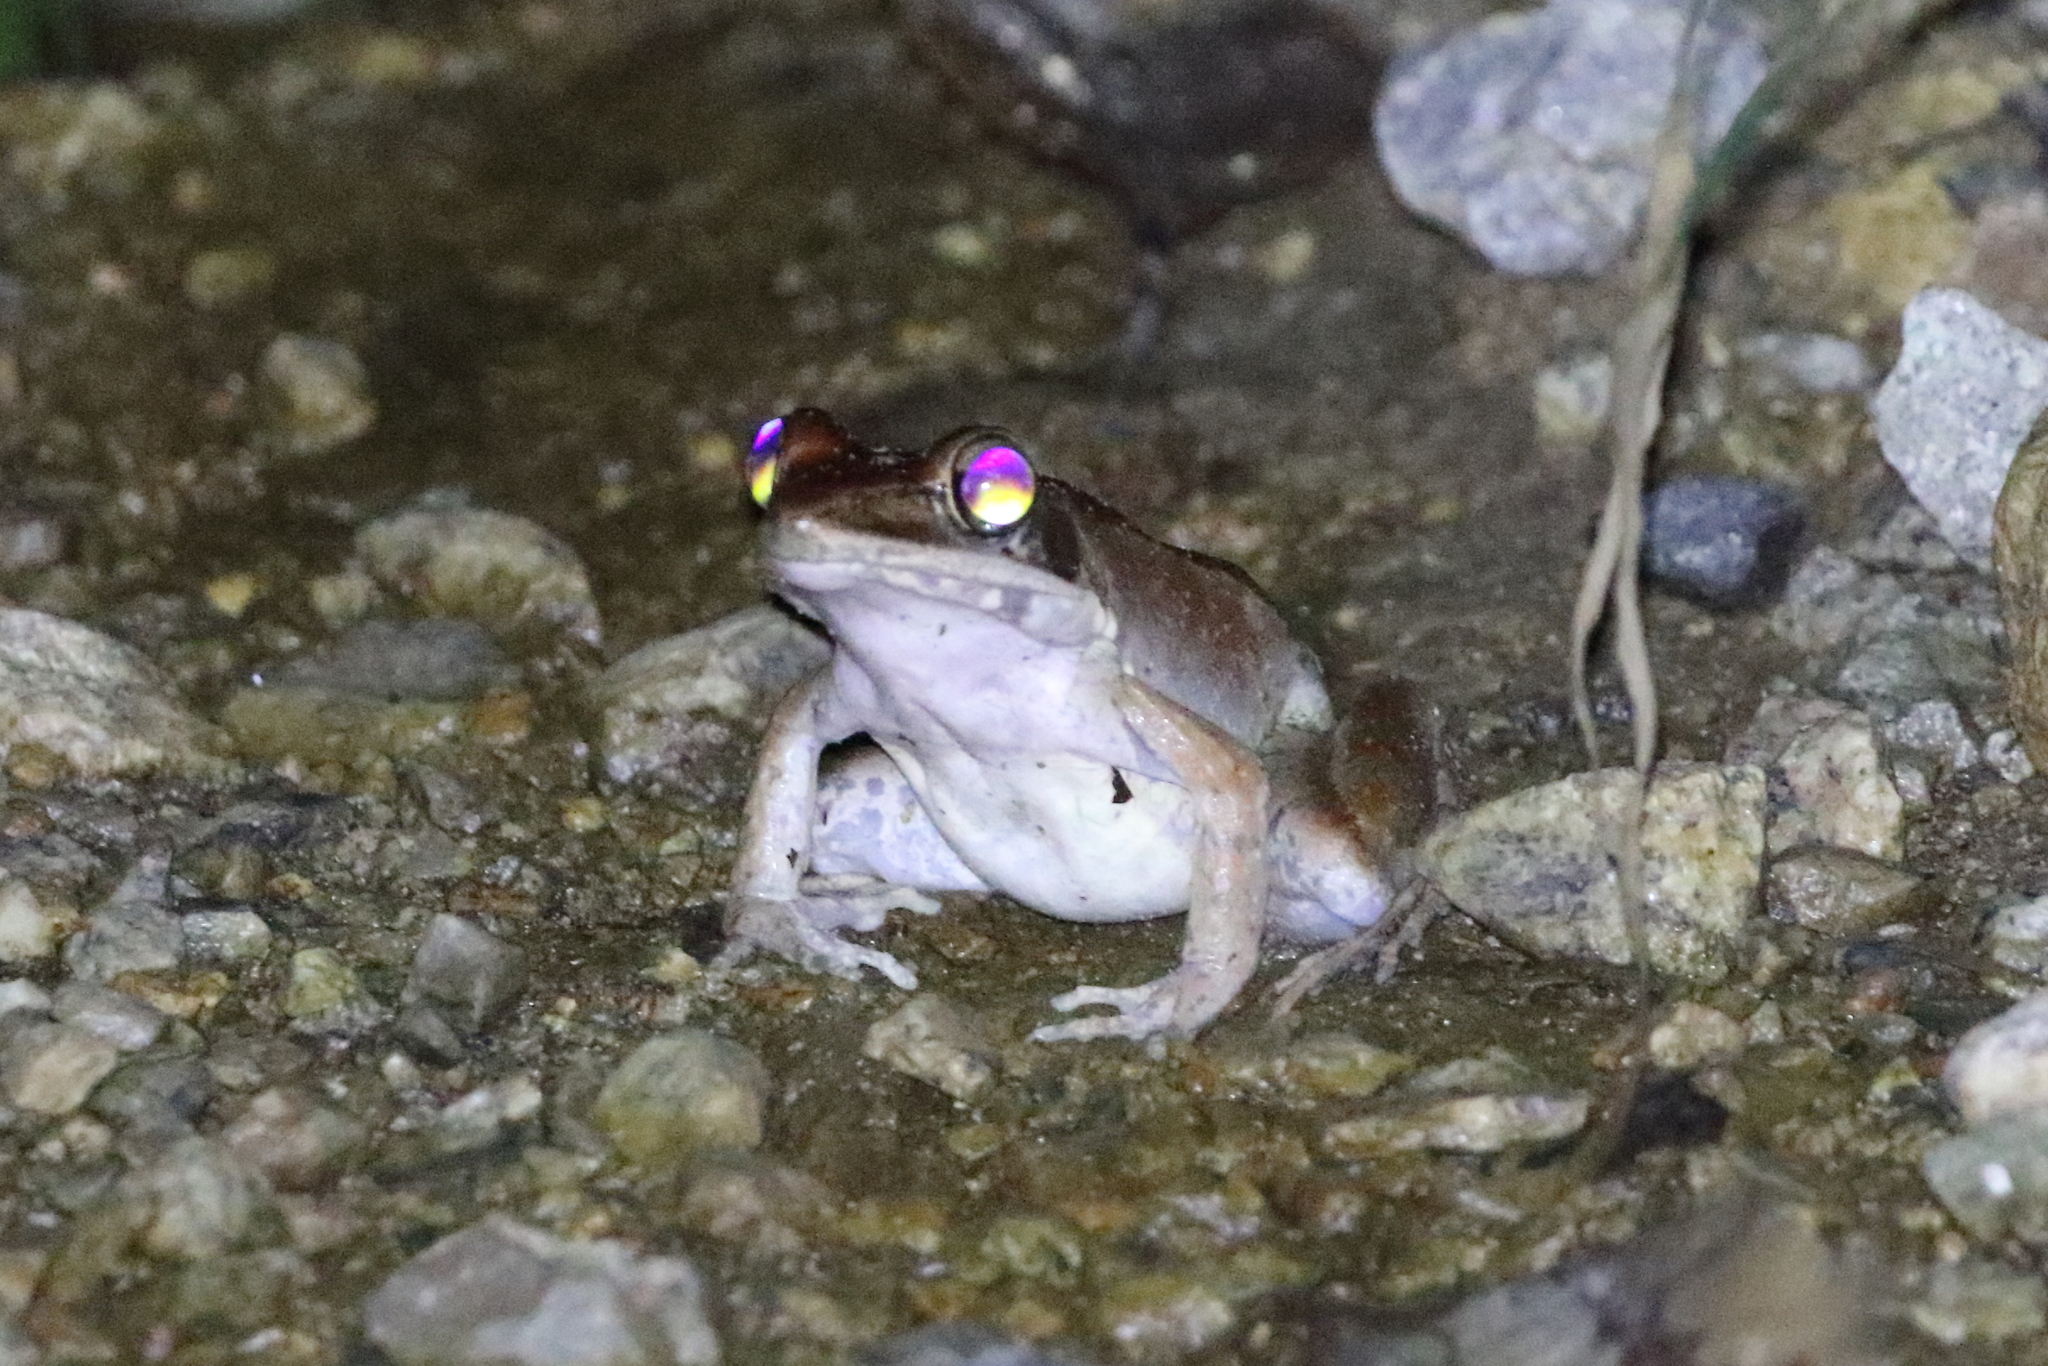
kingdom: Animalia
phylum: Chordata
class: Amphibia
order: Anura
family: Ranidae
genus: Papurana
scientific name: Papurana daemeli
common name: Arhem rana
